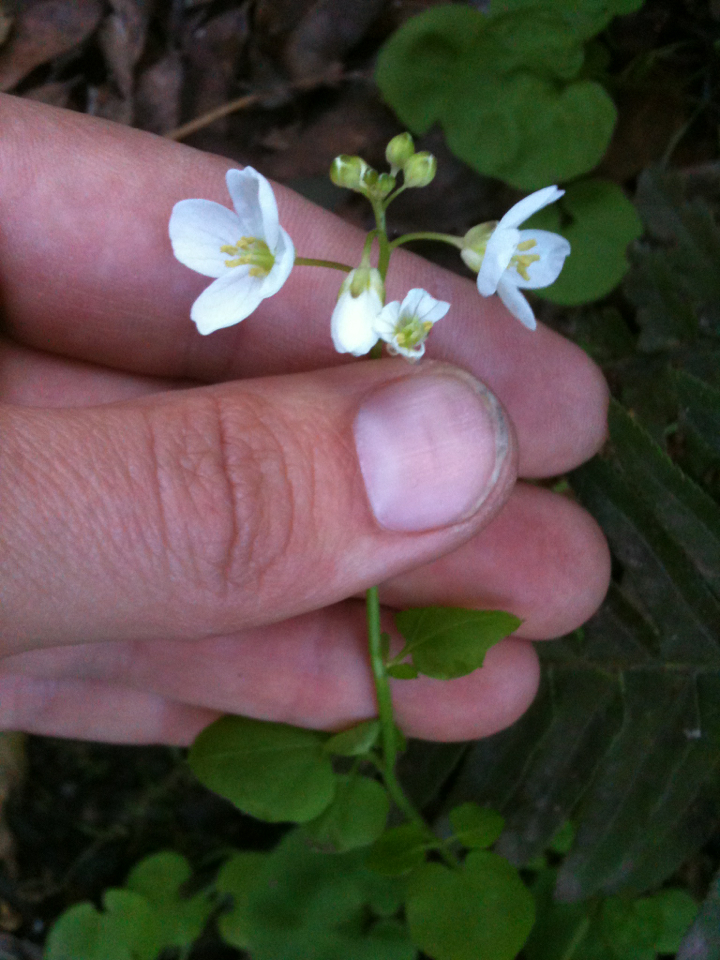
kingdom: Plantae
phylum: Tracheophyta
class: Magnoliopsida
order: Brassicales
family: Brassicaceae
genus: Cardamine
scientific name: Cardamine californica
